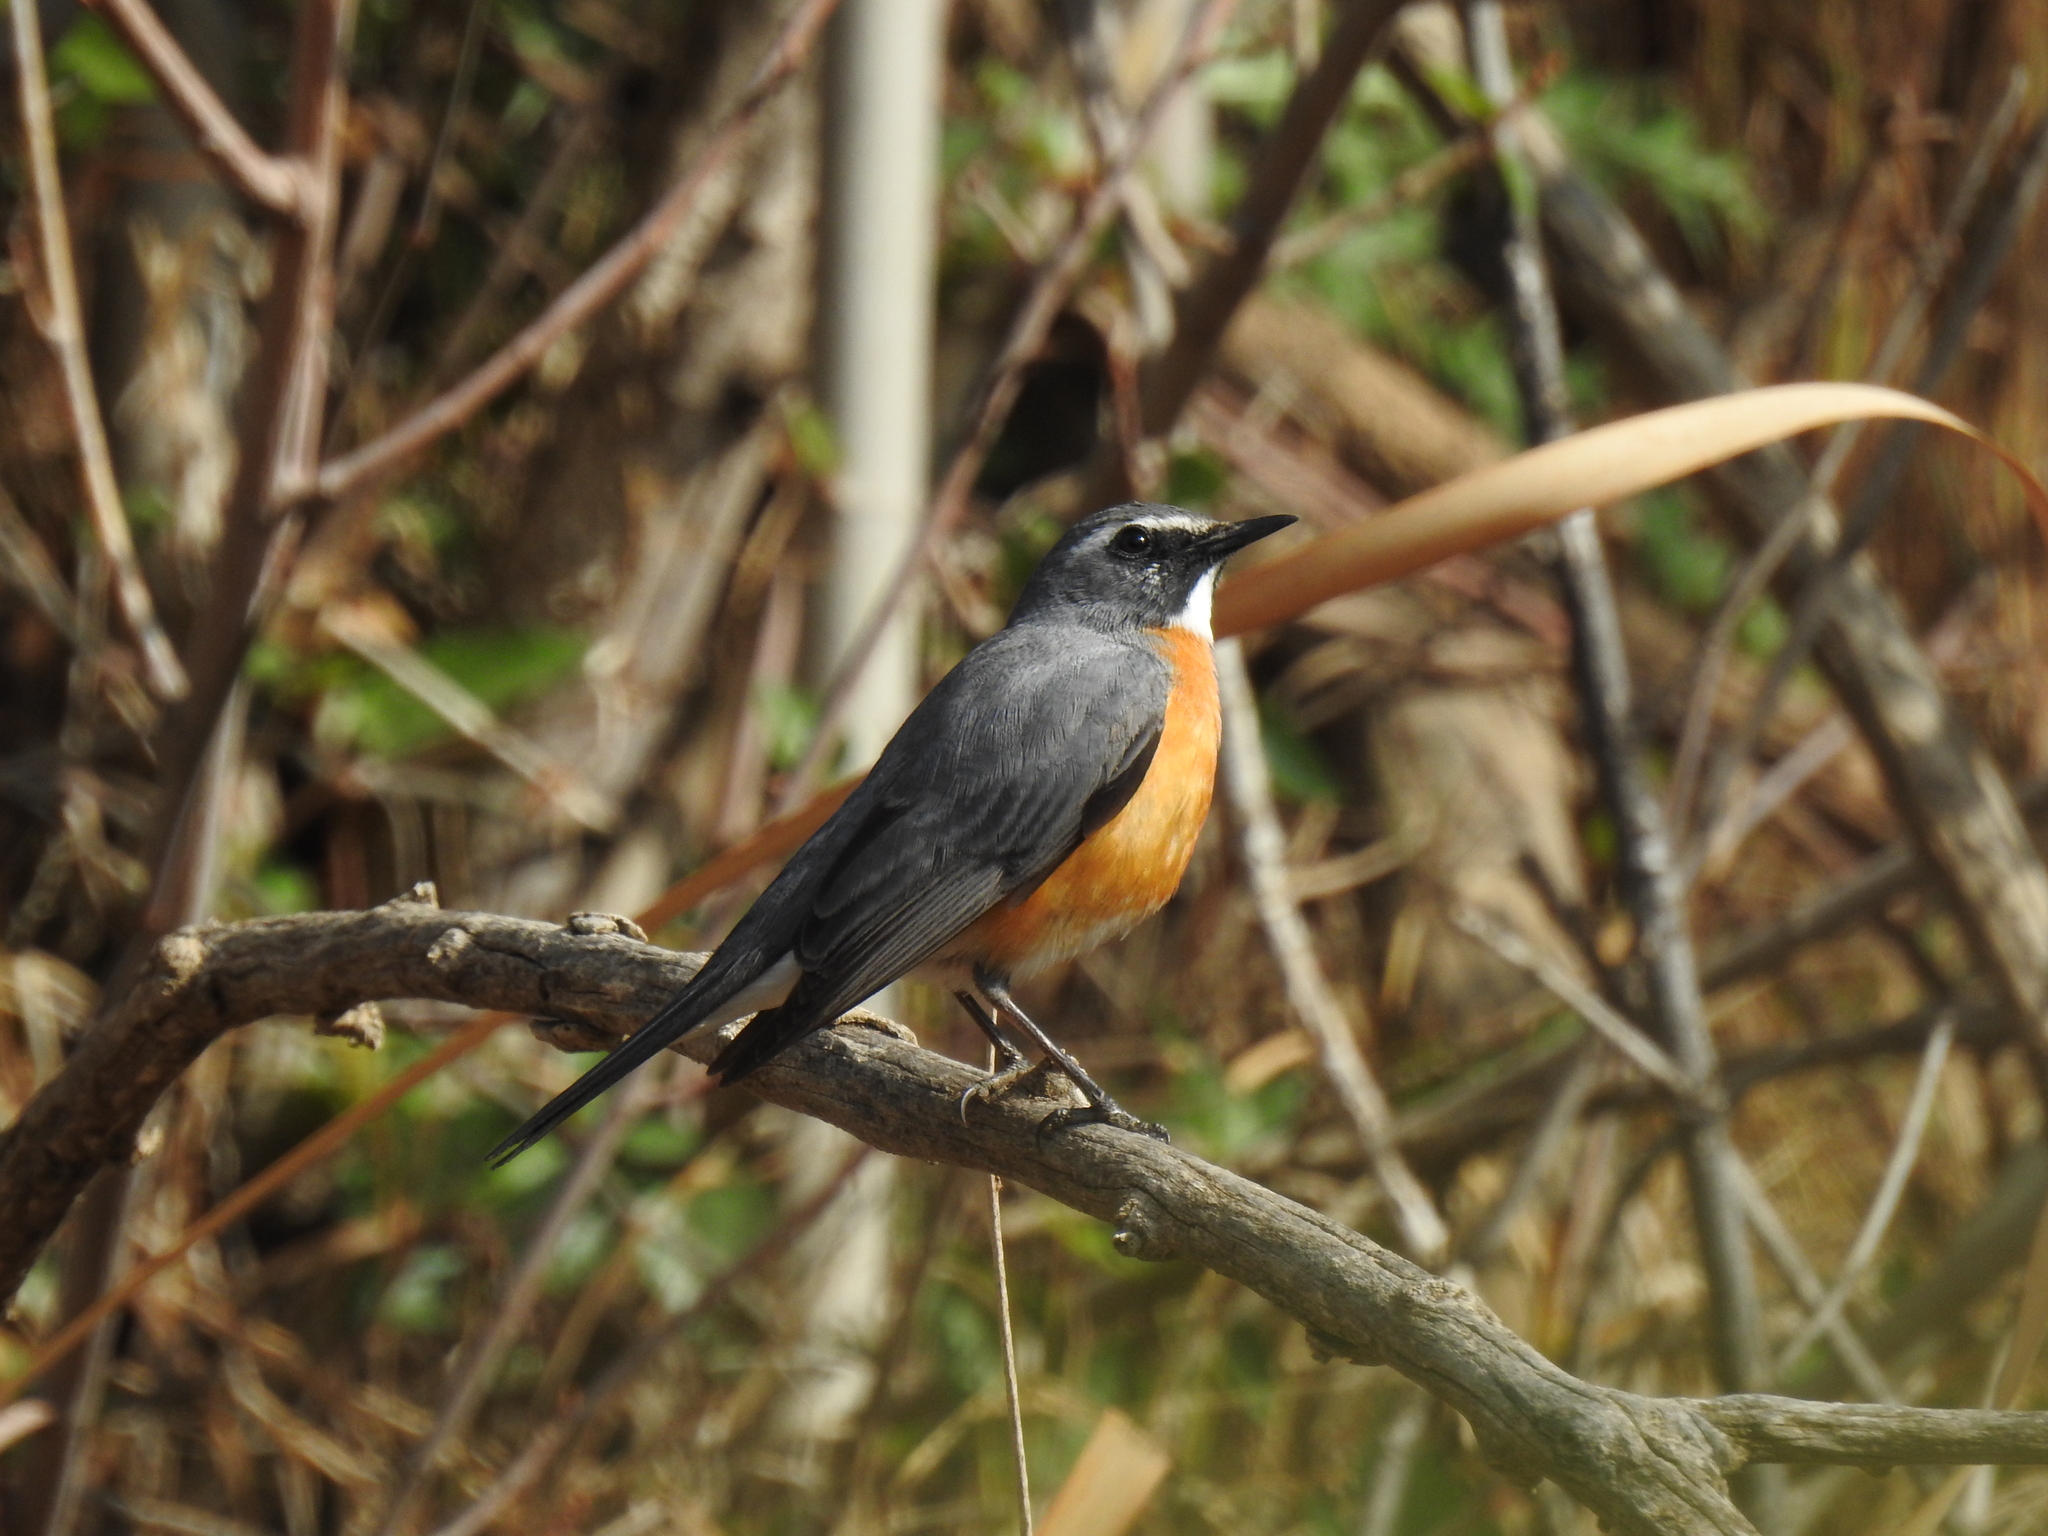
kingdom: Animalia
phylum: Chordata
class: Aves
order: Passeriformes
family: Muscicapidae
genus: Irania
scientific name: Irania gutturalis
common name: White-throated robin
